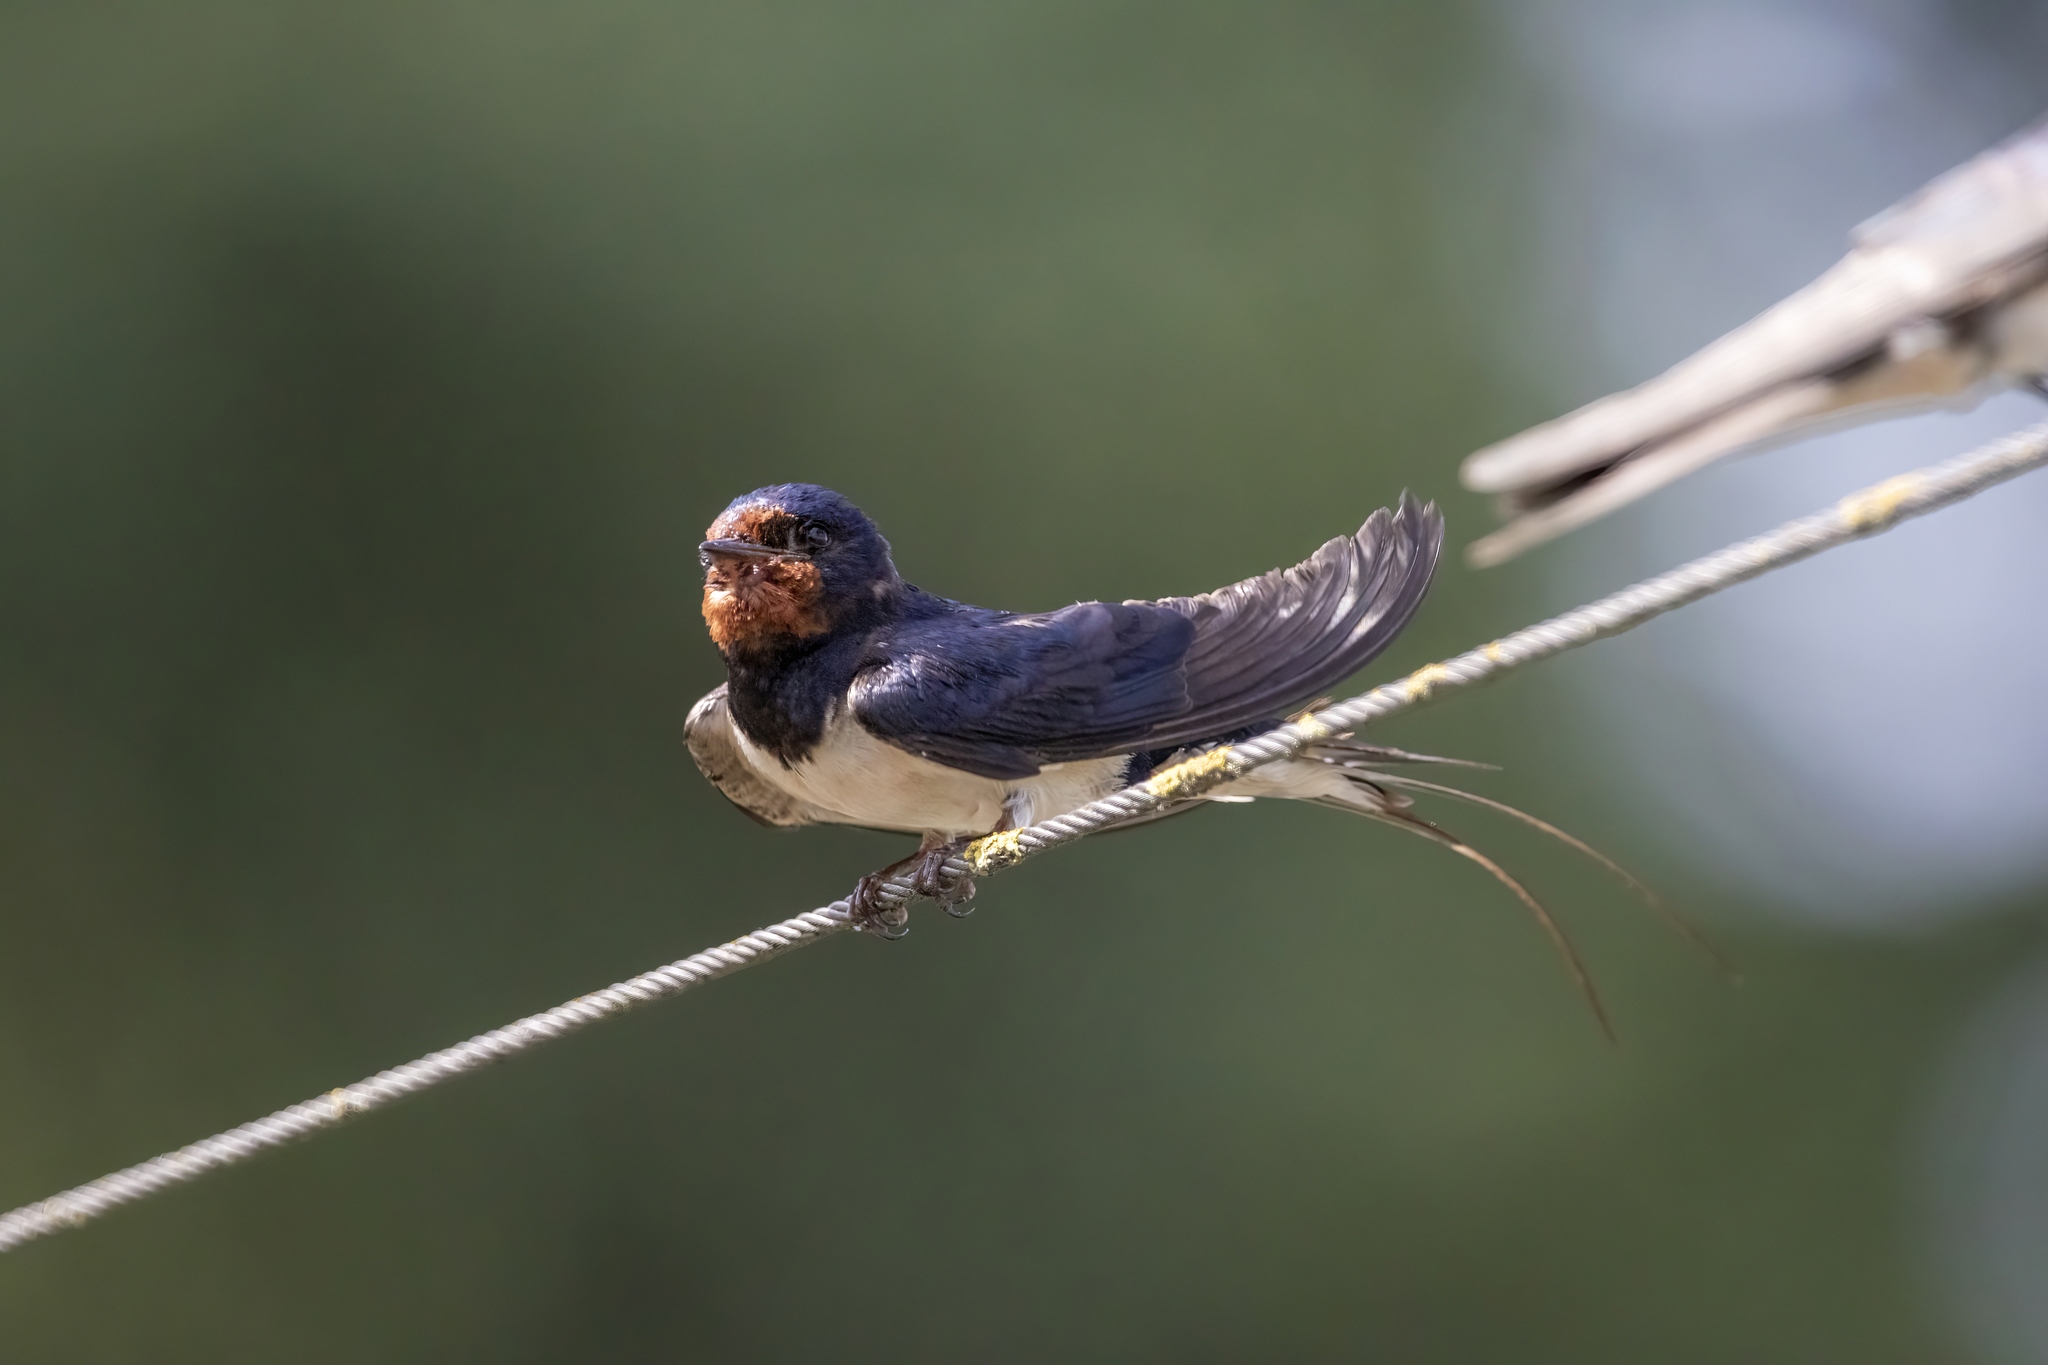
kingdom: Animalia
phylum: Chordata
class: Aves
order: Passeriformes
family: Hirundinidae
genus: Hirundo
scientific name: Hirundo rustica
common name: Barn swallow
